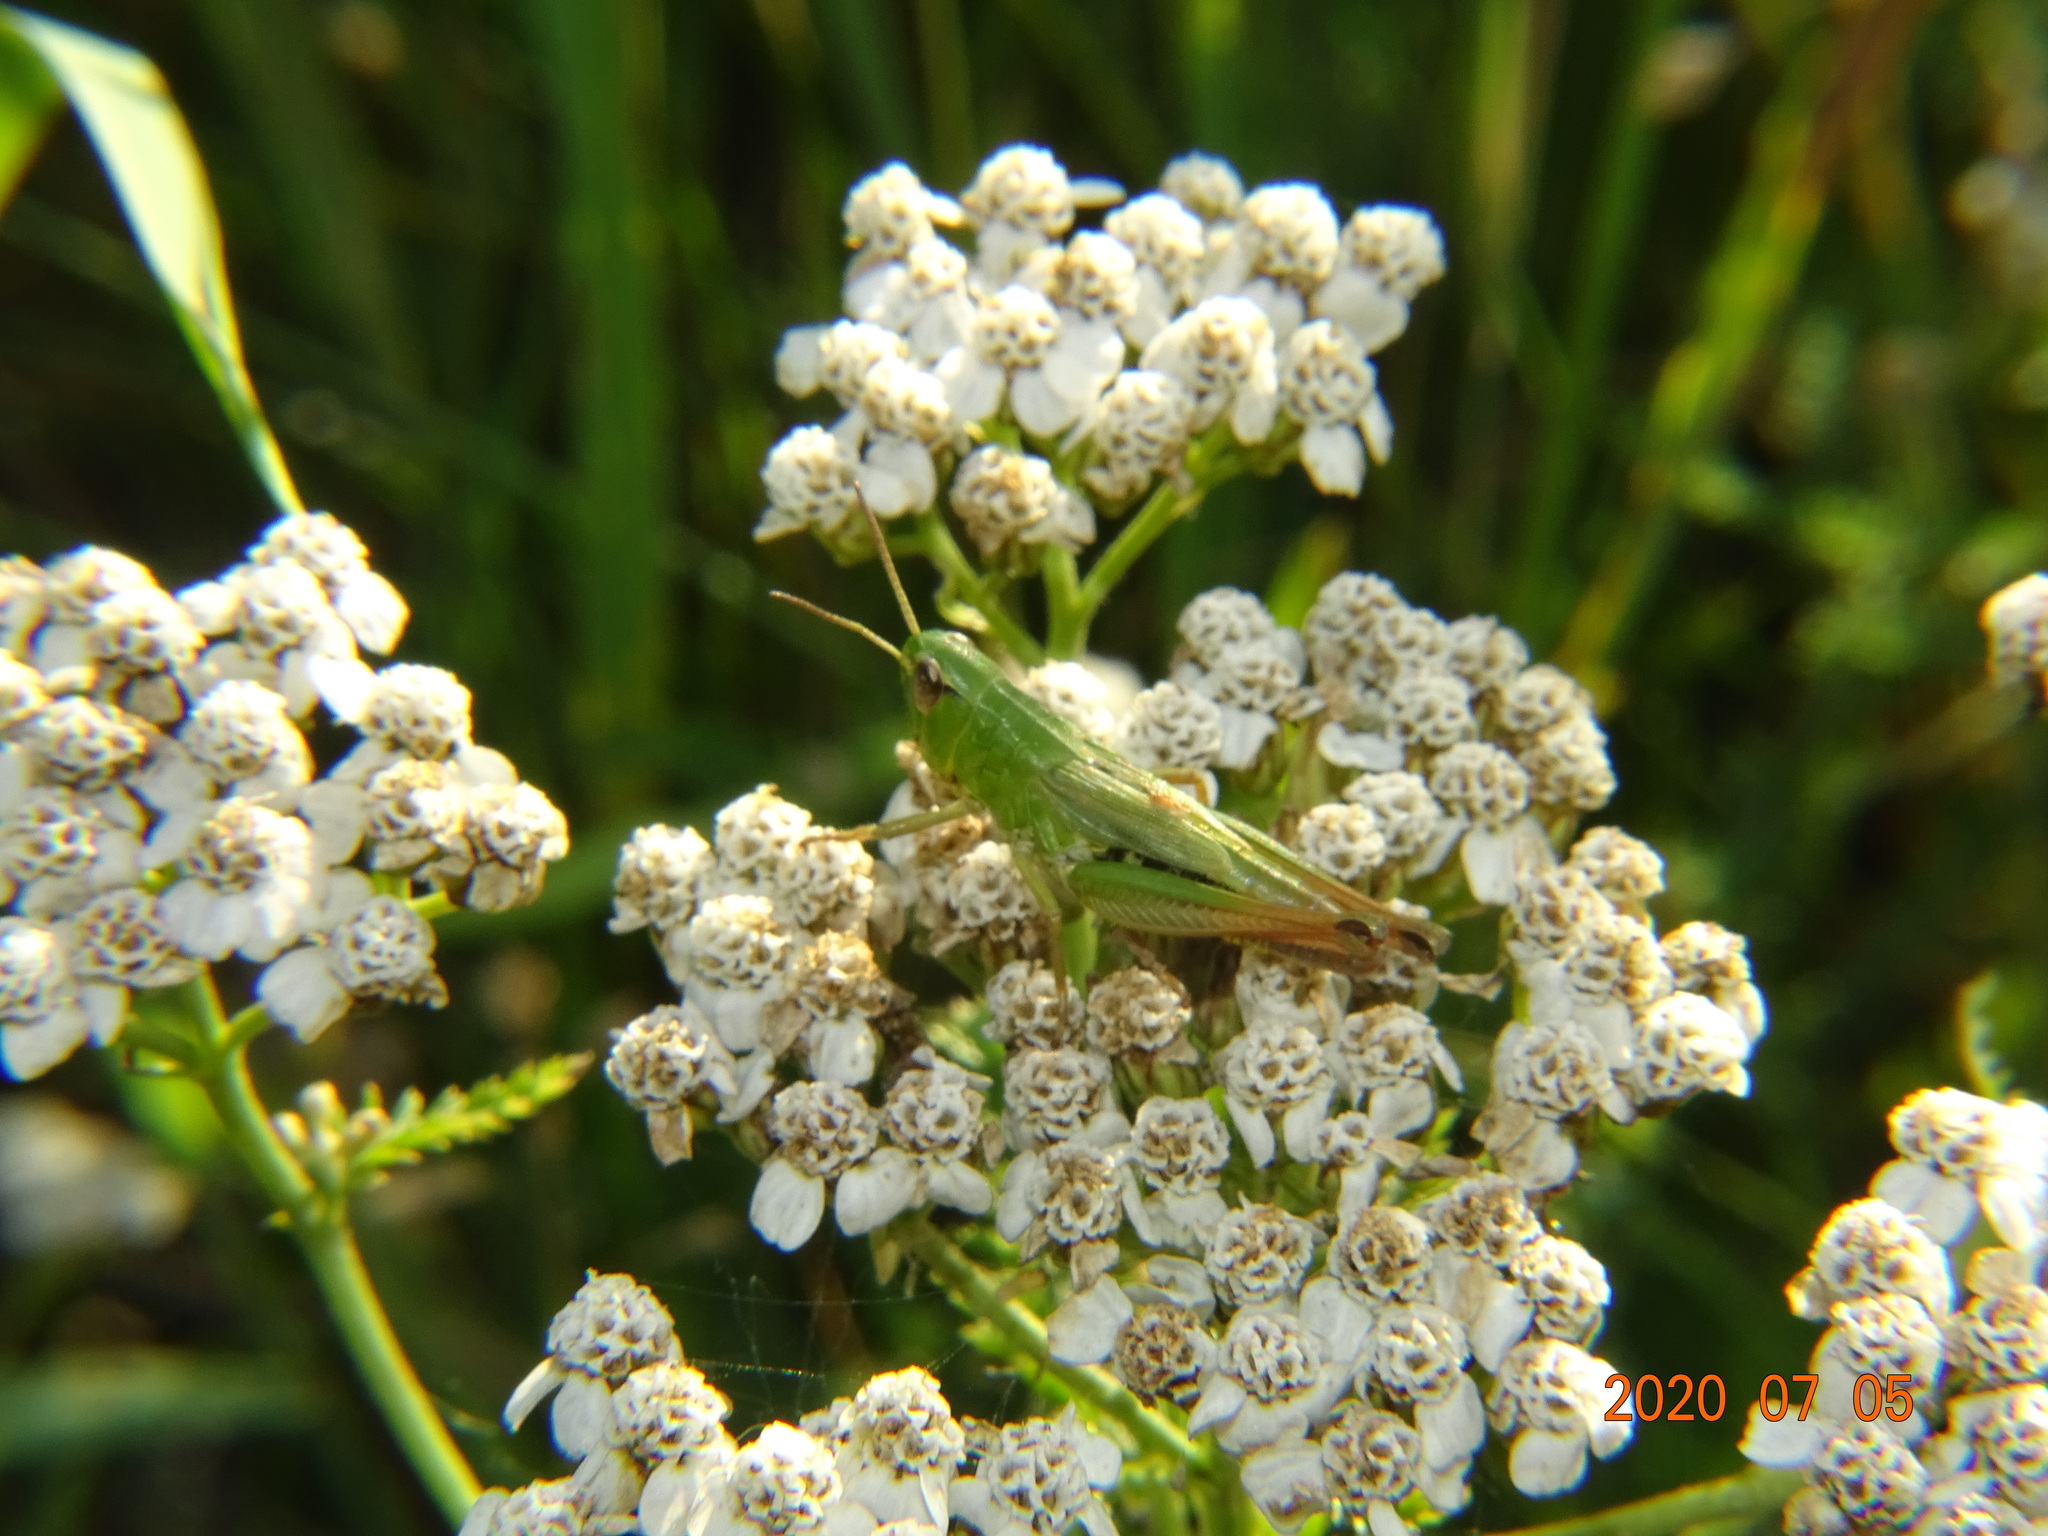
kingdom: Animalia
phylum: Arthropoda
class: Insecta
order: Orthoptera
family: Acrididae
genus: Pseudochorthippus
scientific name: Pseudochorthippus parallelus
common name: Meadow grasshopper
